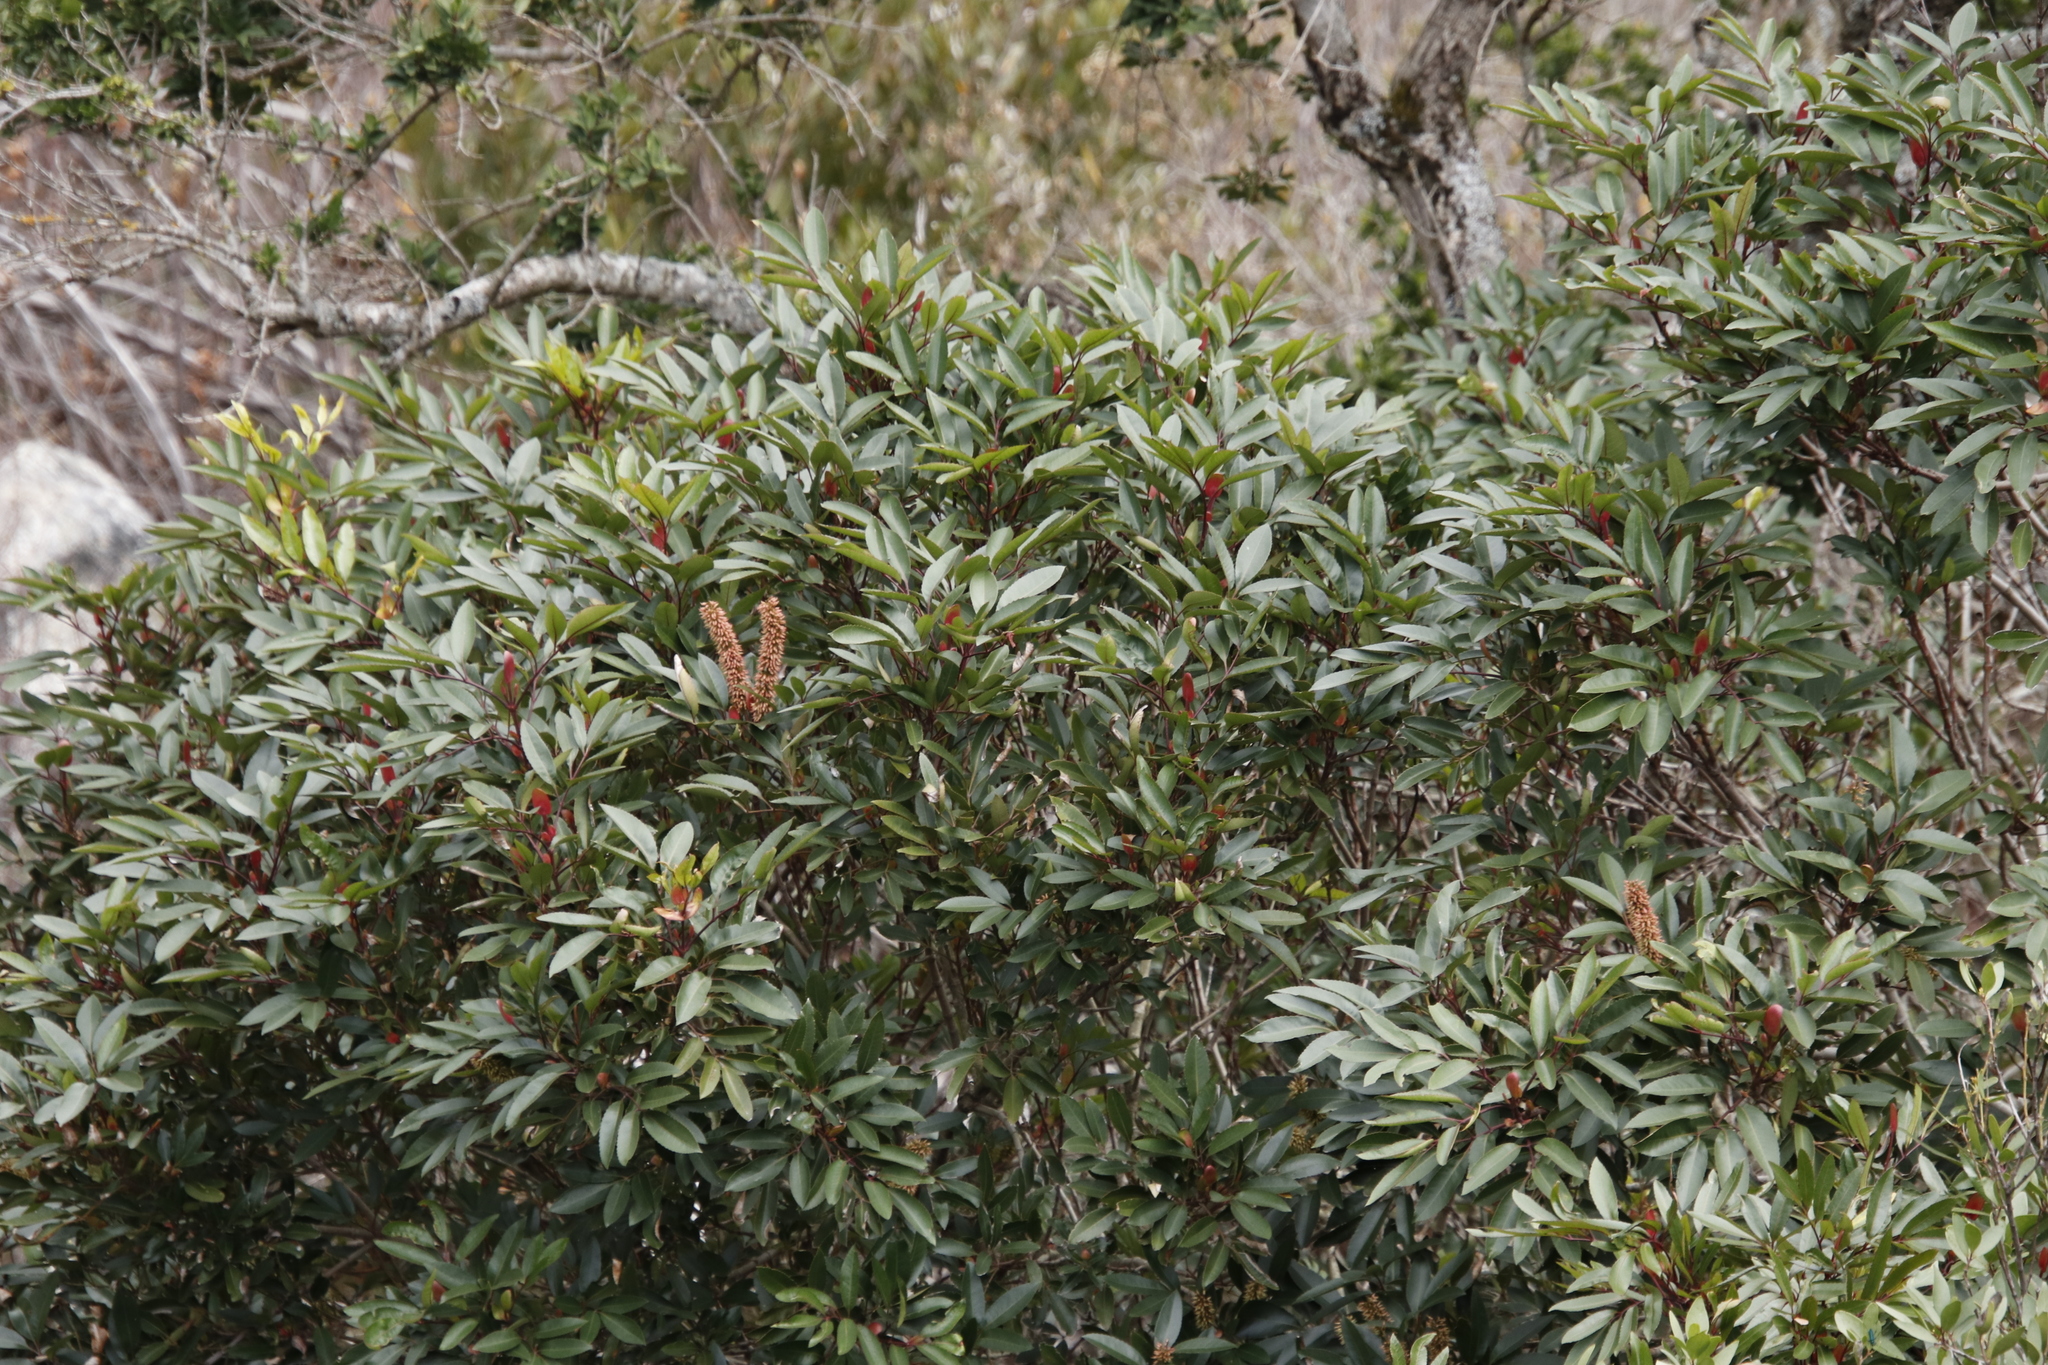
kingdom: Plantae
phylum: Tracheophyta
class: Magnoliopsida
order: Oxalidales
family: Cunoniaceae
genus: Cunonia
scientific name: Cunonia capensis
